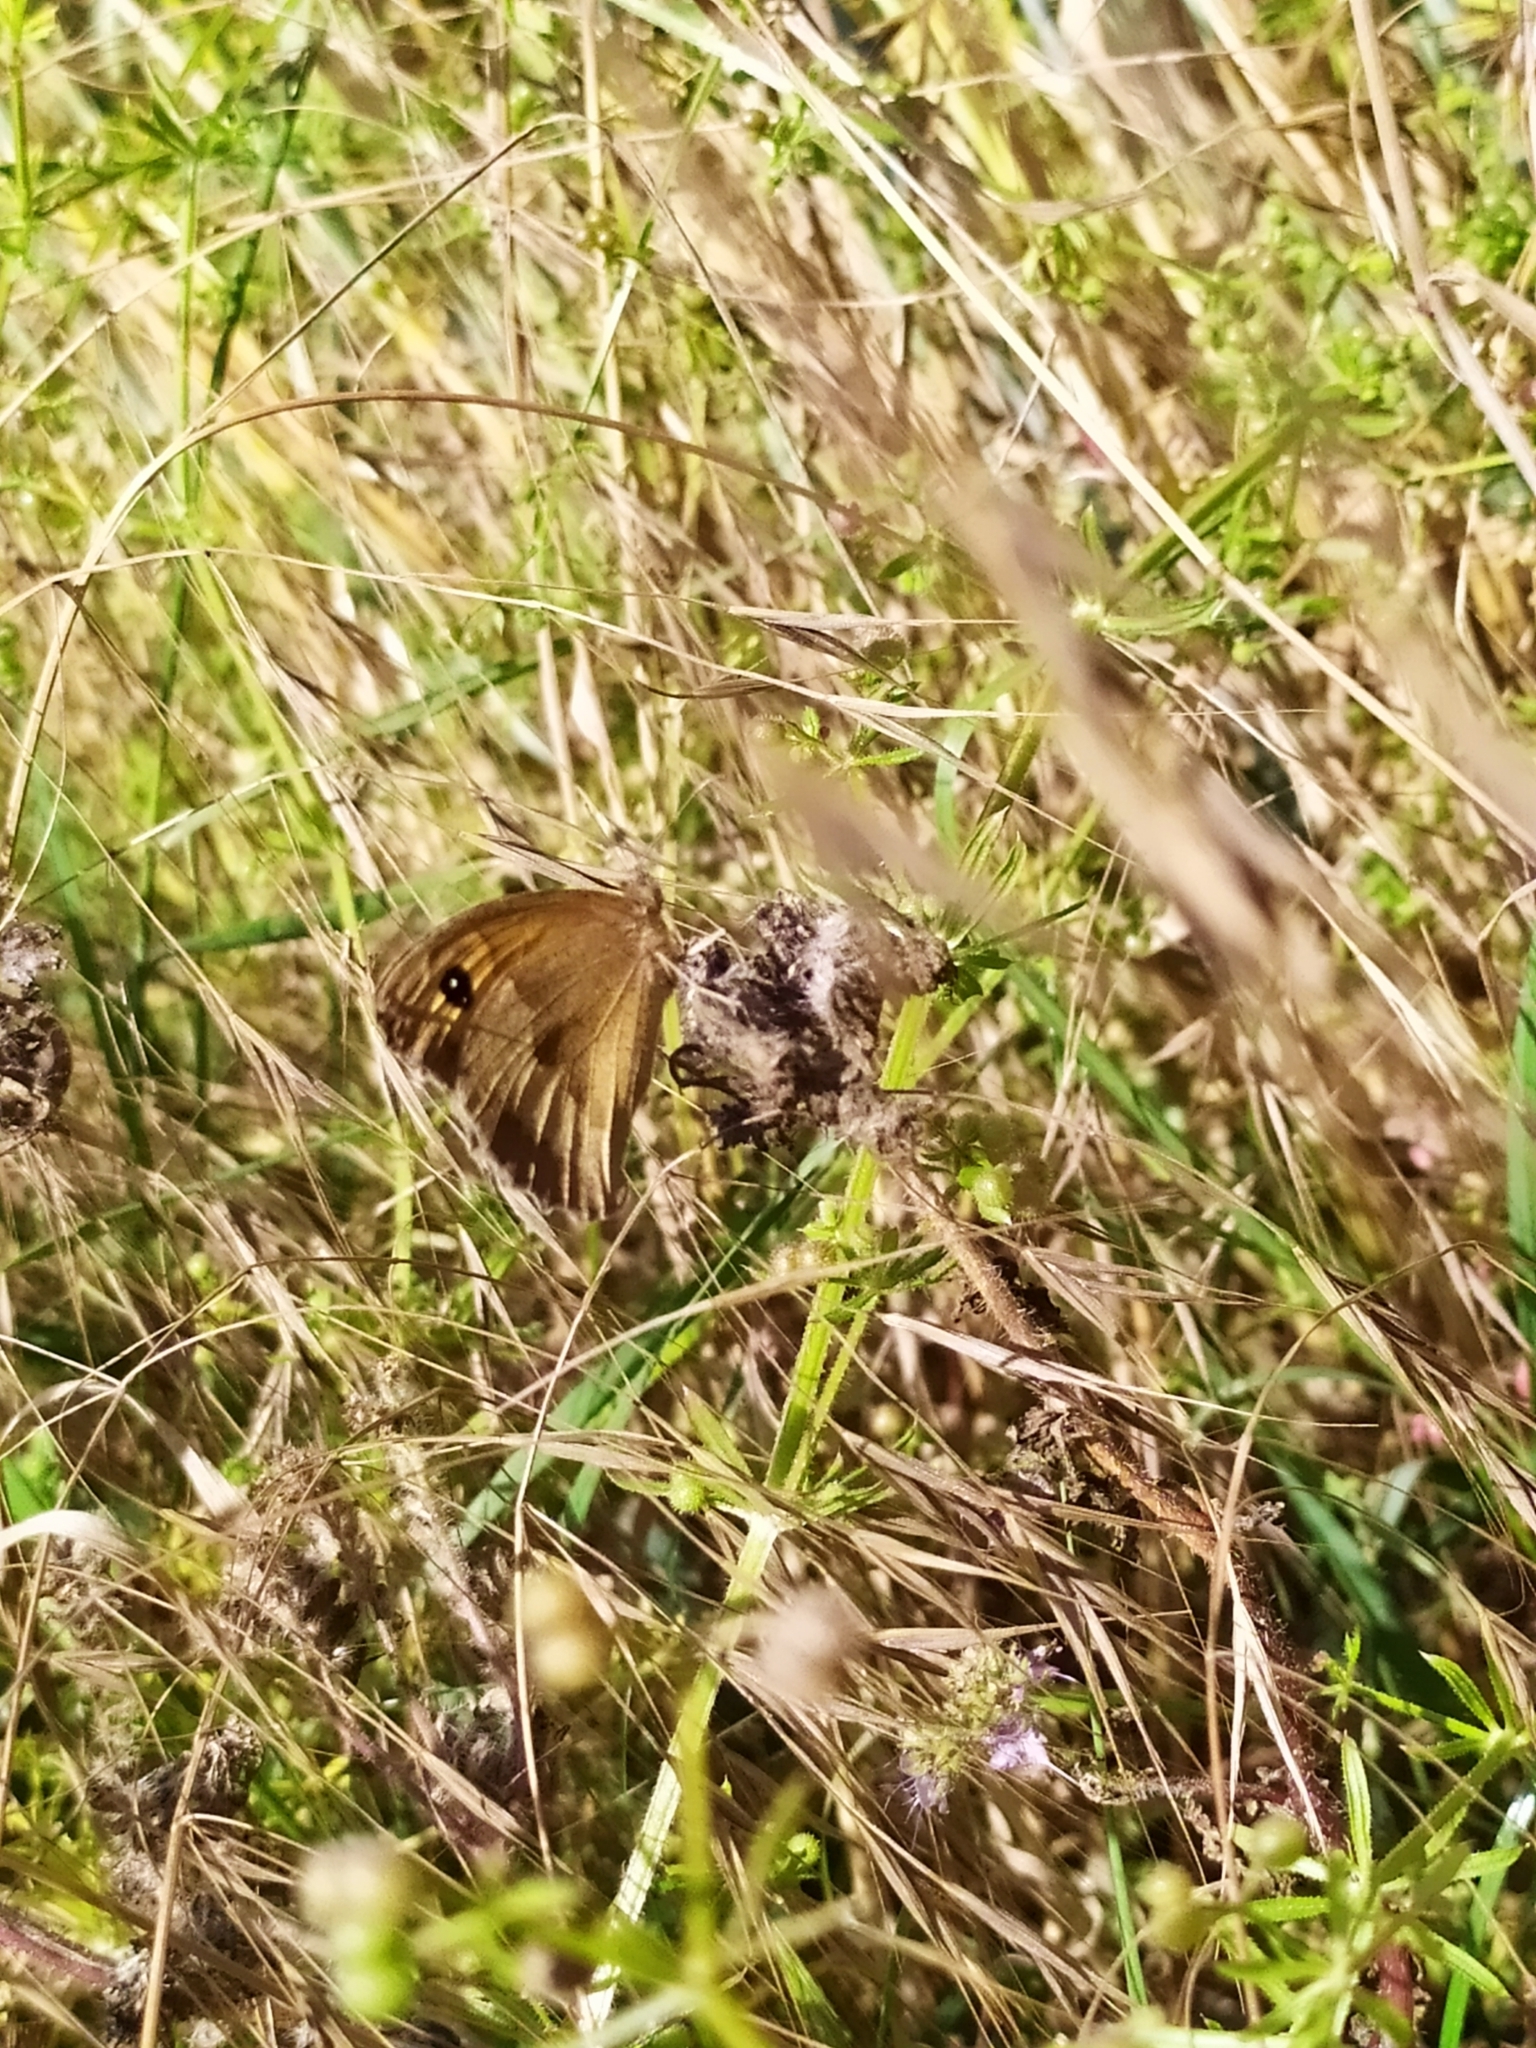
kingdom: Animalia
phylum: Arthropoda
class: Insecta
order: Lepidoptera
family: Nymphalidae
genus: Maniola
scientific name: Maniola jurtina
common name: Meadow brown
